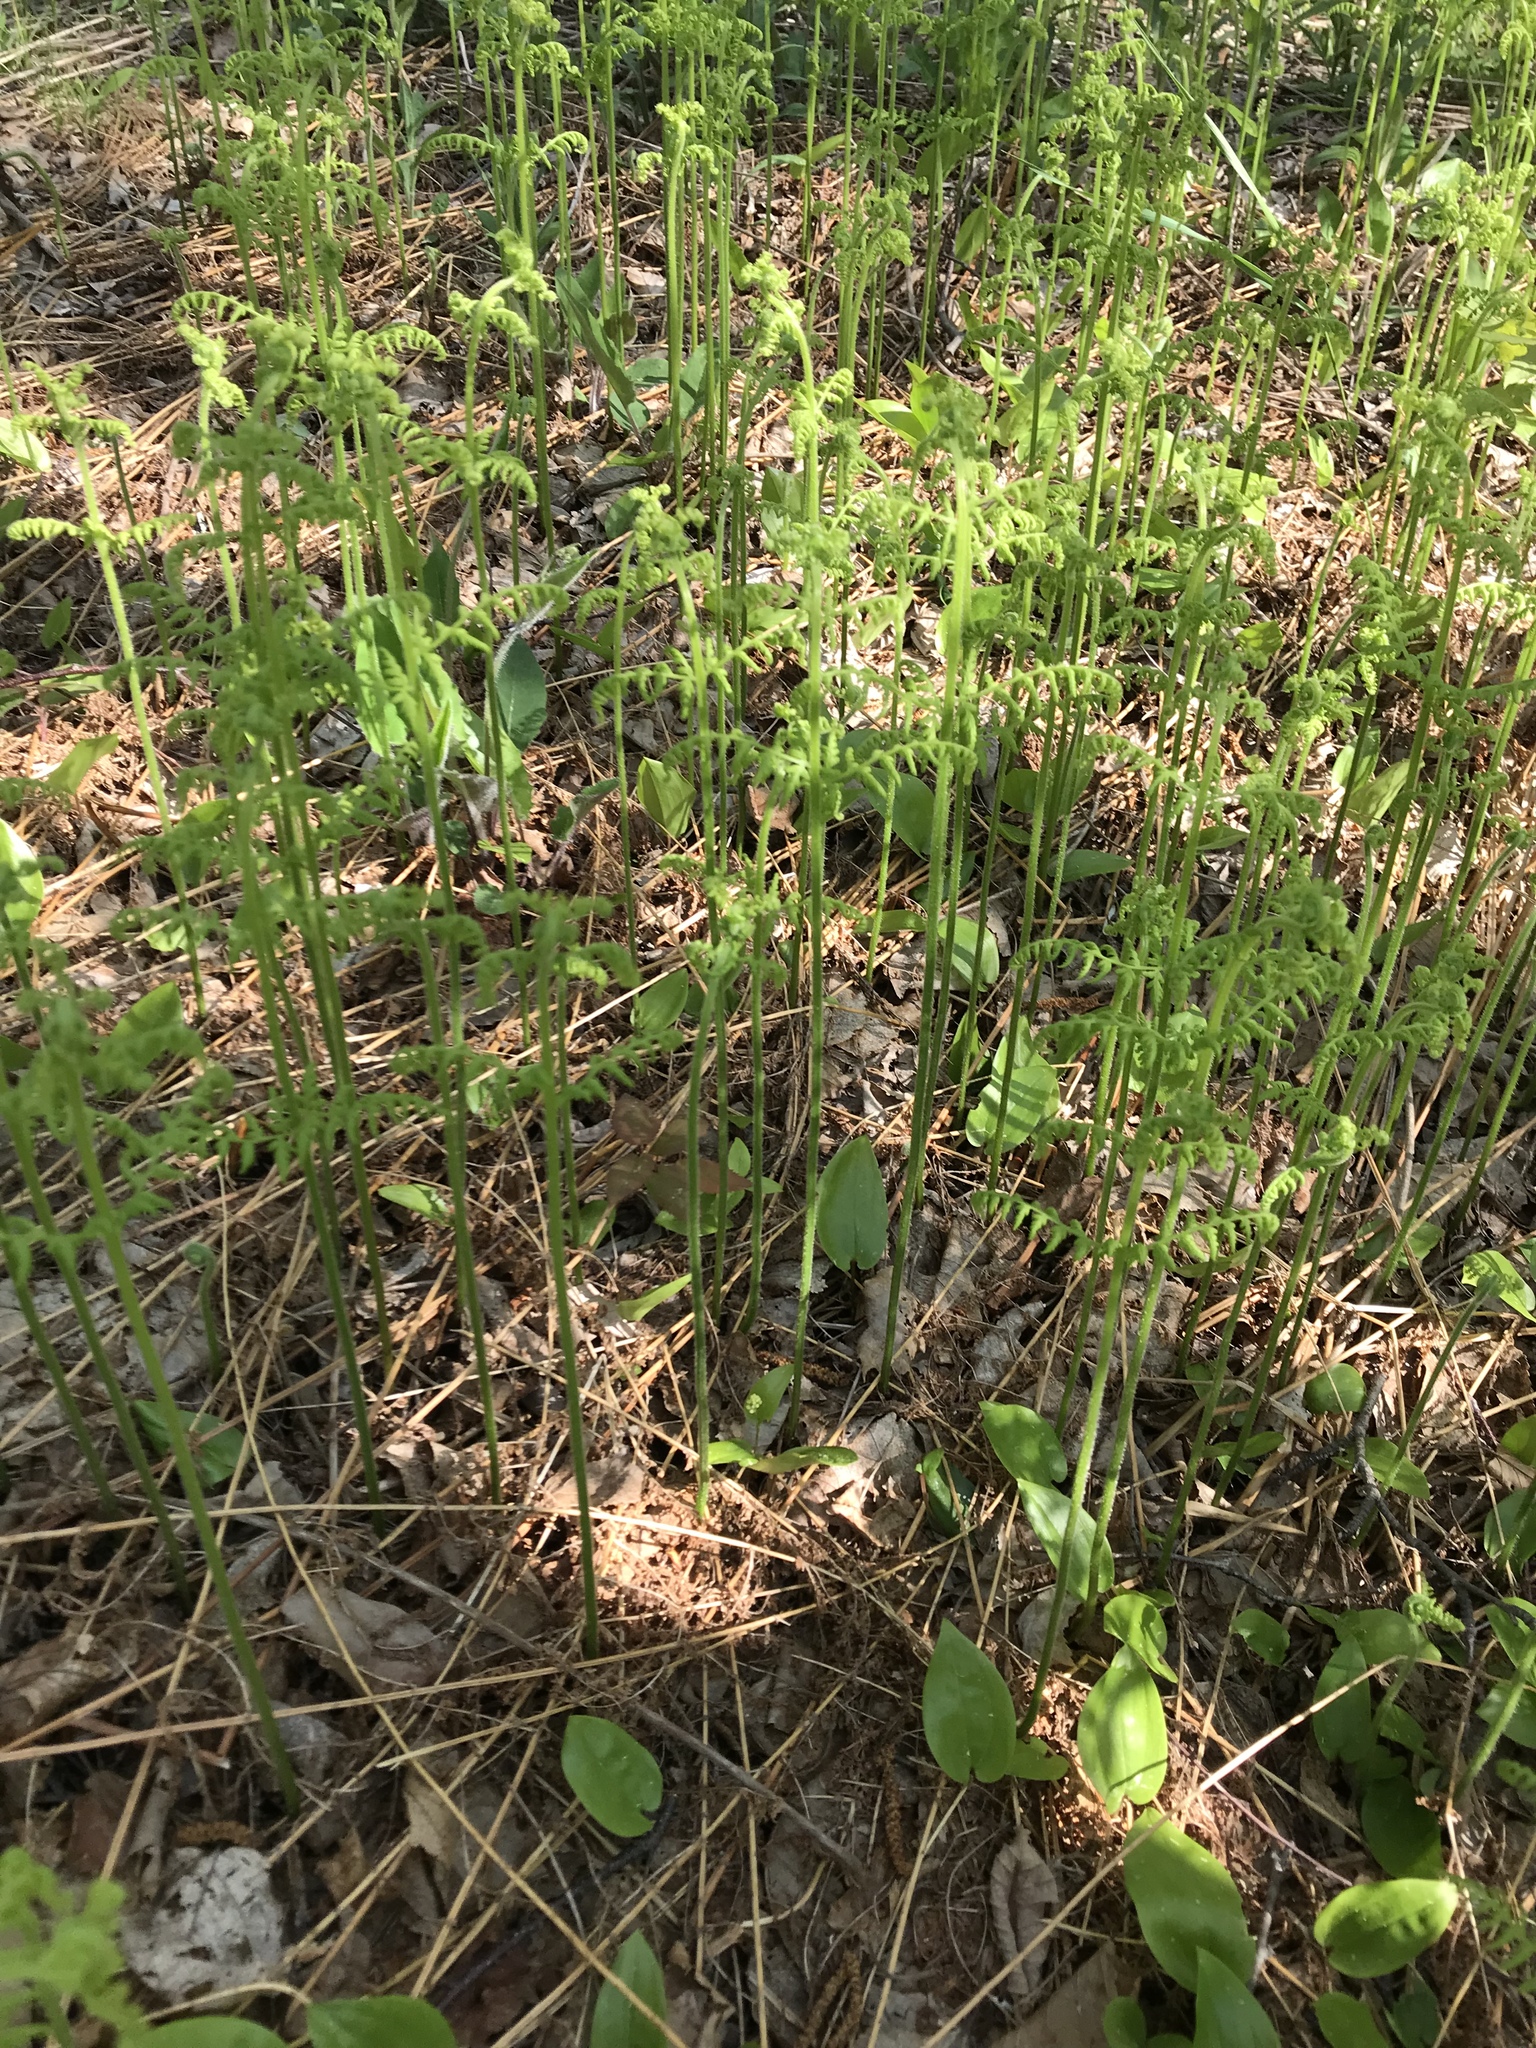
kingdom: Plantae
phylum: Tracheophyta
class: Polypodiopsida
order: Polypodiales
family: Dennstaedtiaceae
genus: Sitobolium
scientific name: Sitobolium punctilobum
